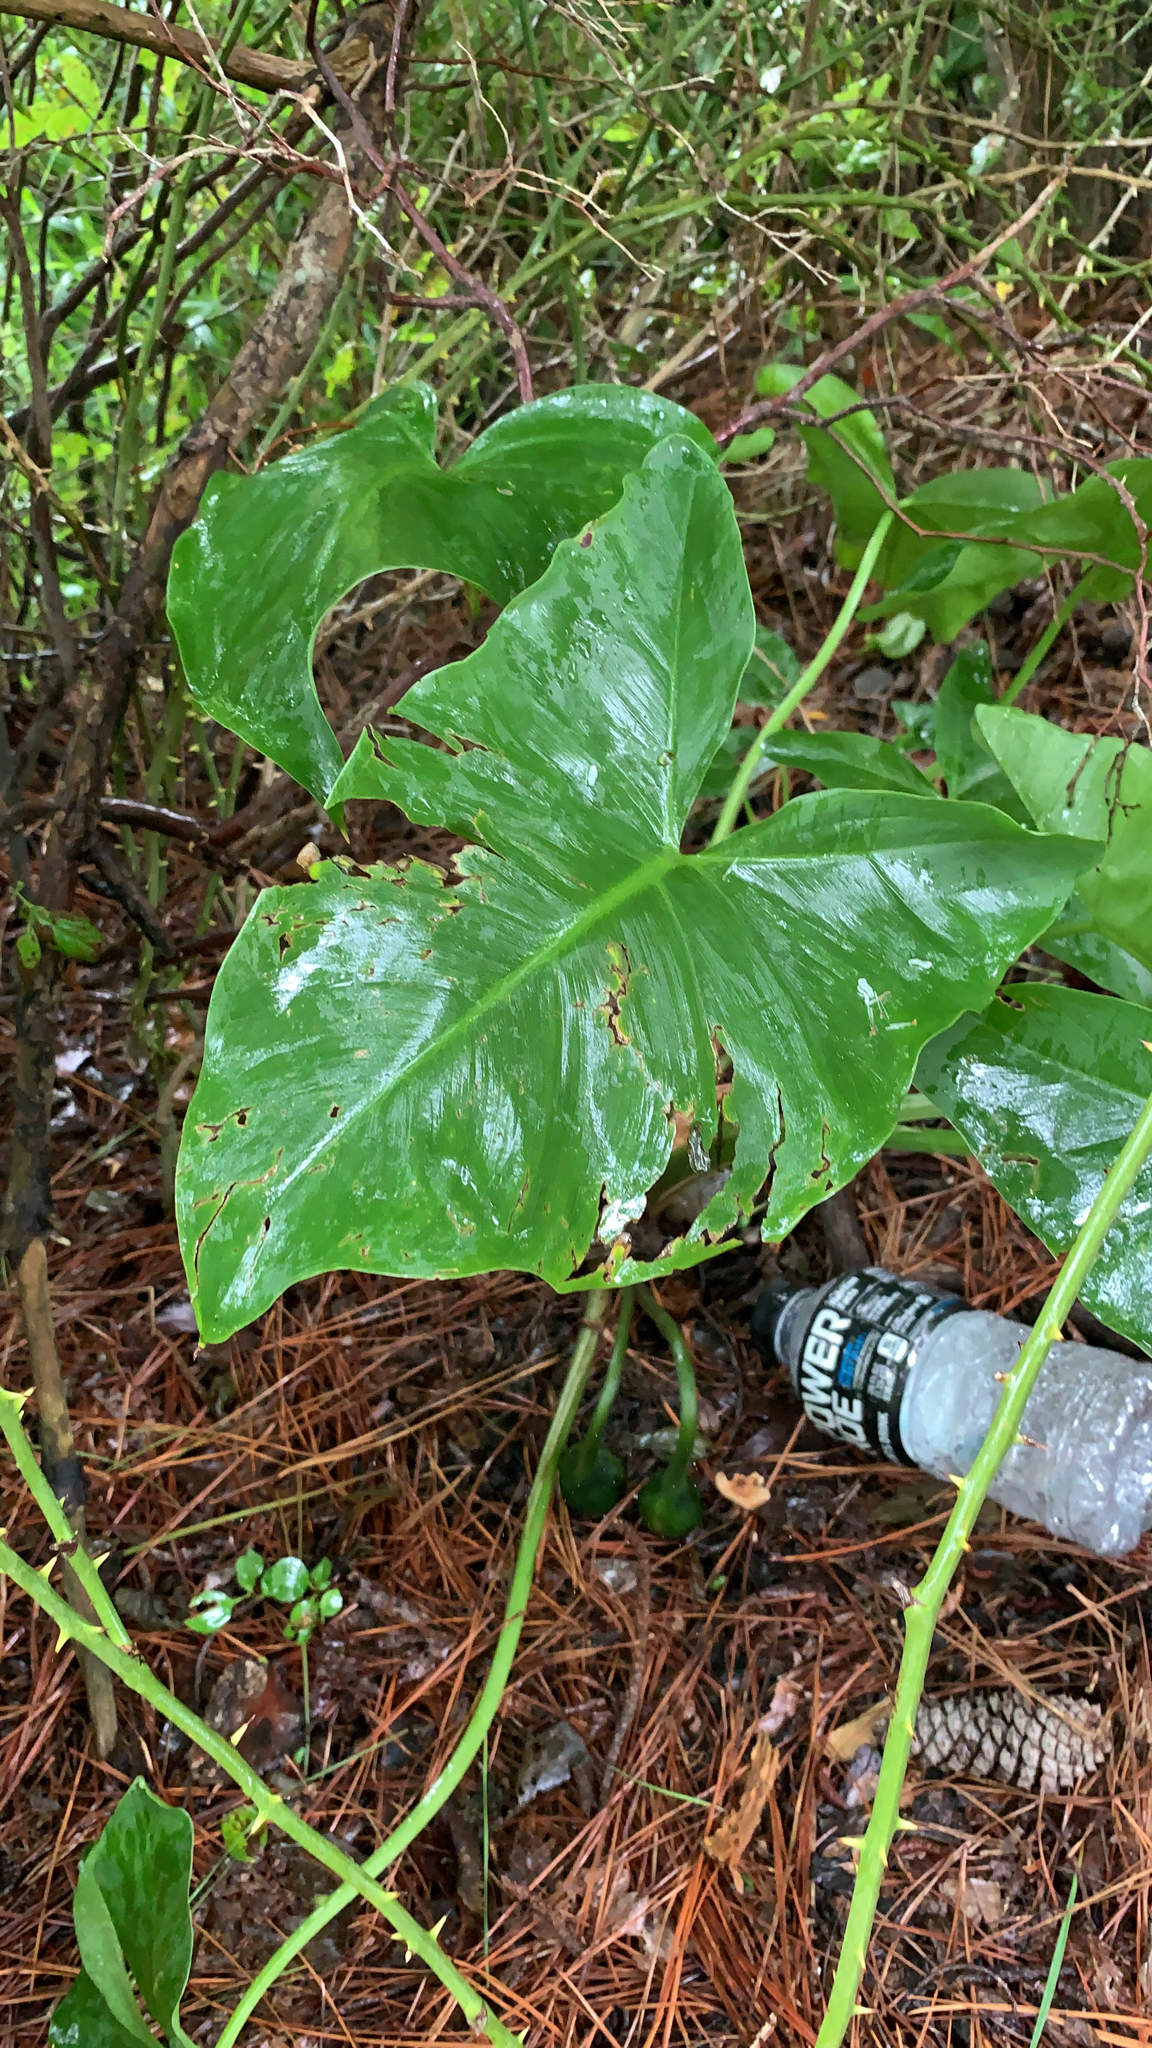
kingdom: Plantae
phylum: Tracheophyta
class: Liliopsida
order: Alismatales
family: Araceae
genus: Peltandra
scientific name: Peltandra virginica
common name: Arrow arum
